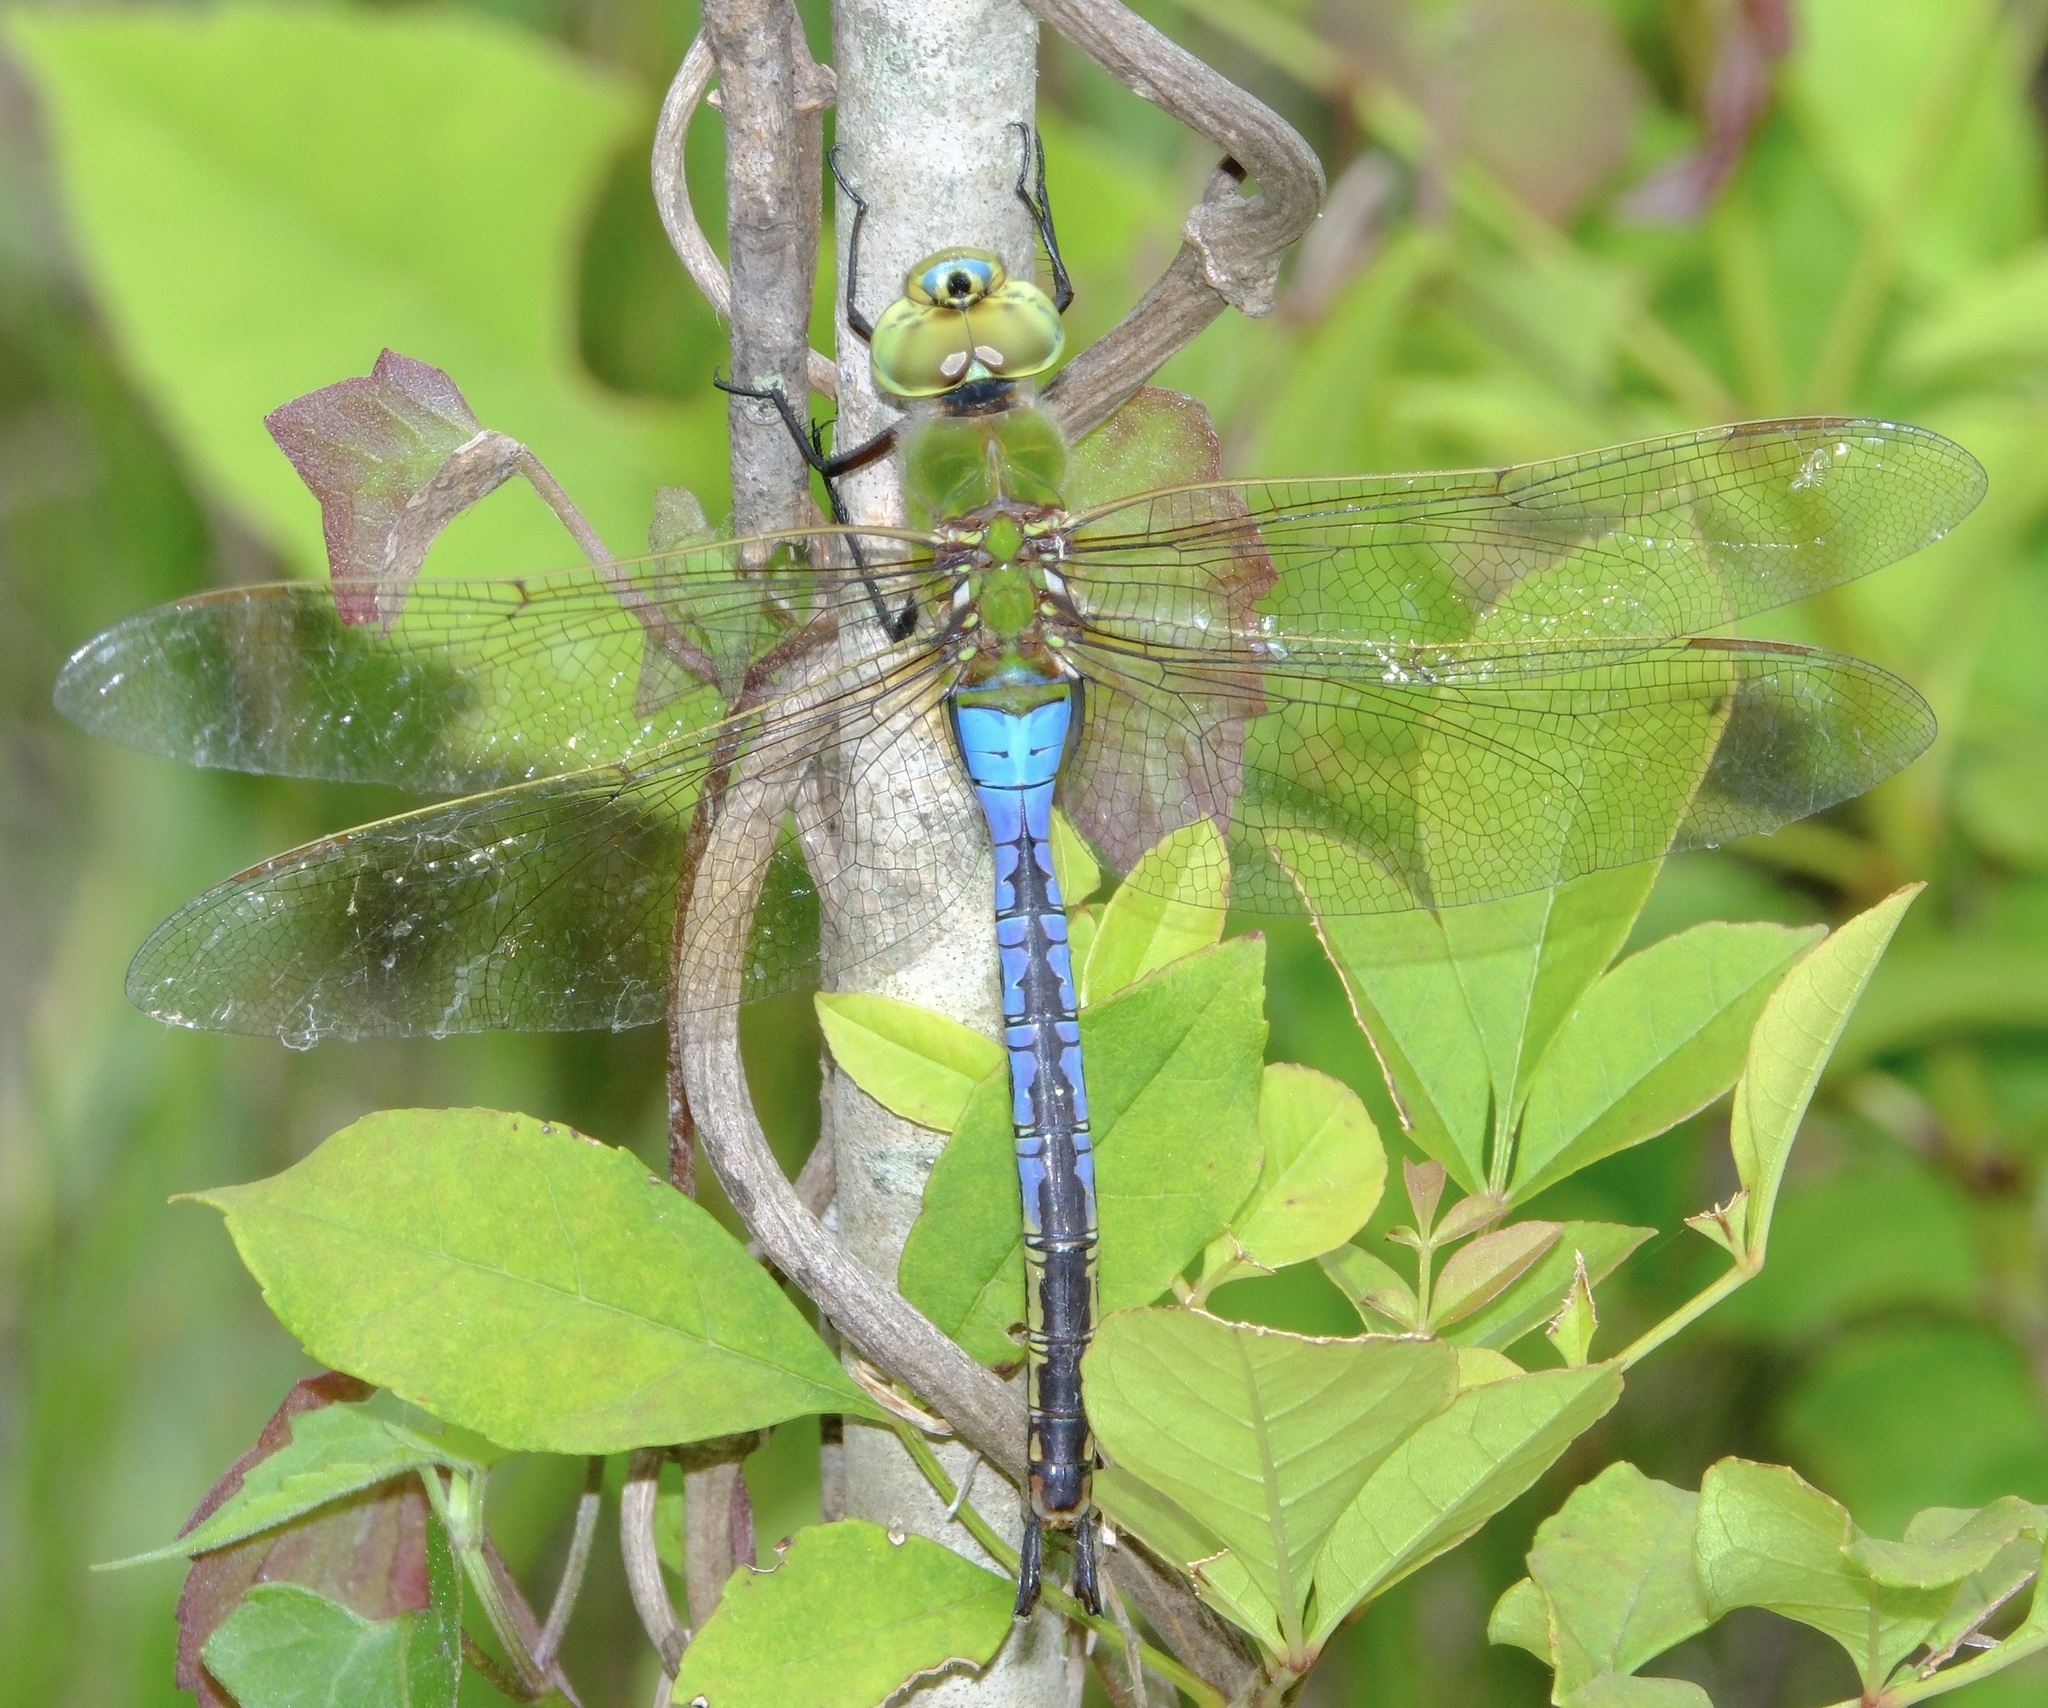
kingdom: Animalia
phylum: Arthropoda
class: Insecta
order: Odonata
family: Aeshnidae
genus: Anax
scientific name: Anax junius
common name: Common green darner
